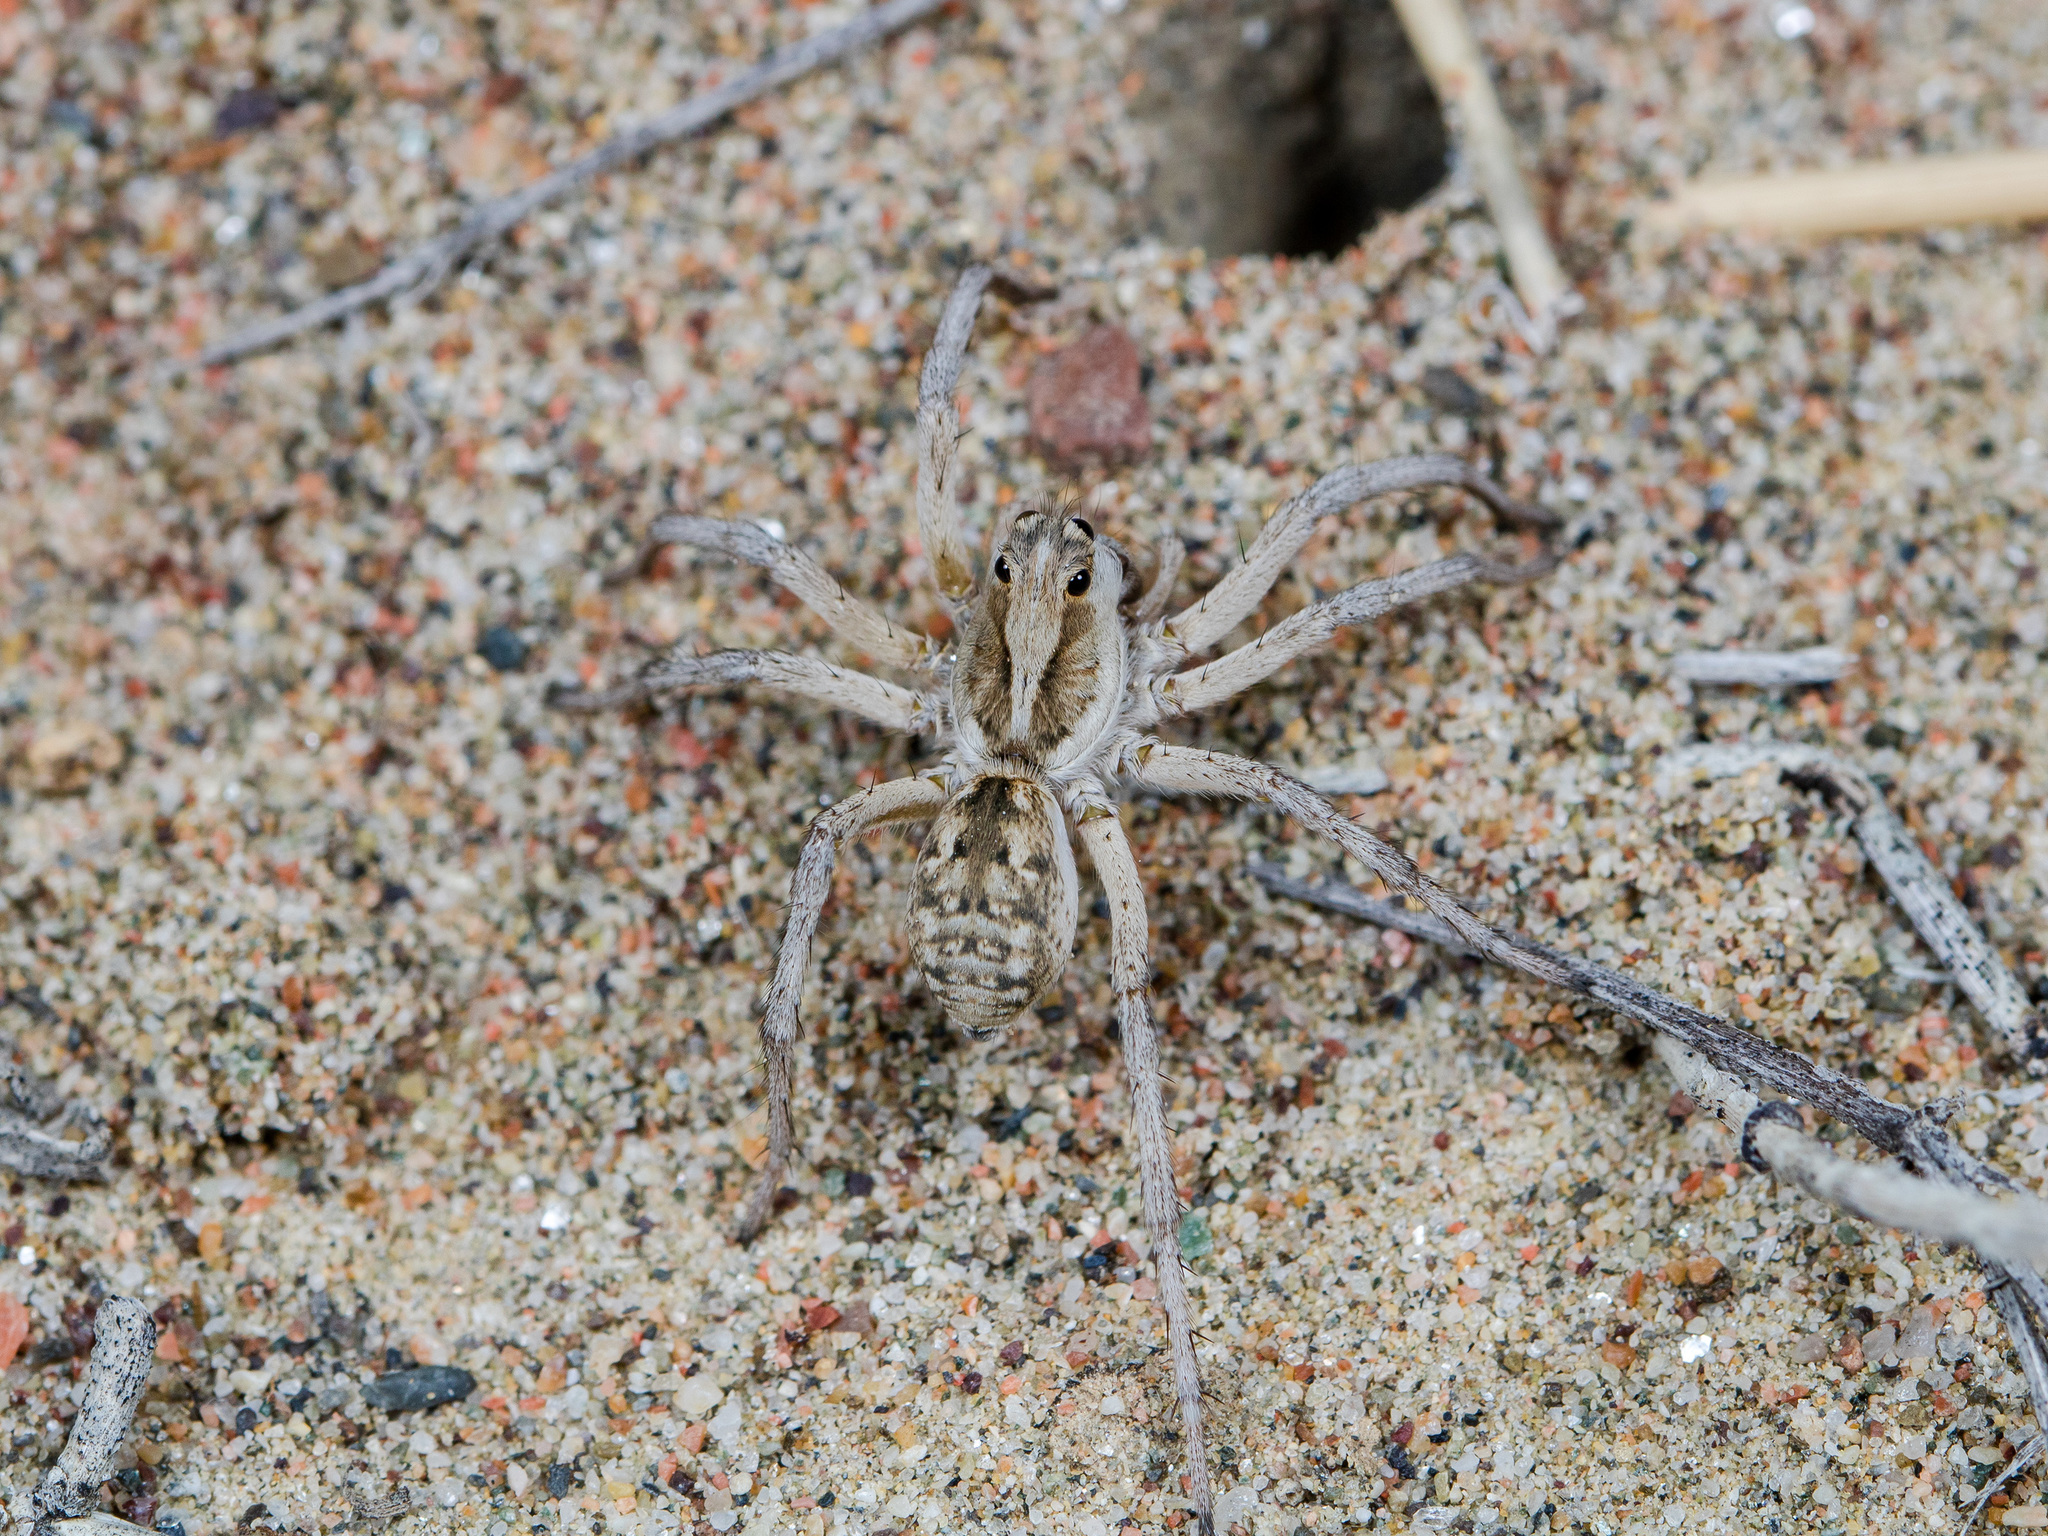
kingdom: Animalia
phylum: Arthropoda
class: Arachnida
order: Araneae
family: Lycosidae
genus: Karakumosa
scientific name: Karakumosa alticeps
